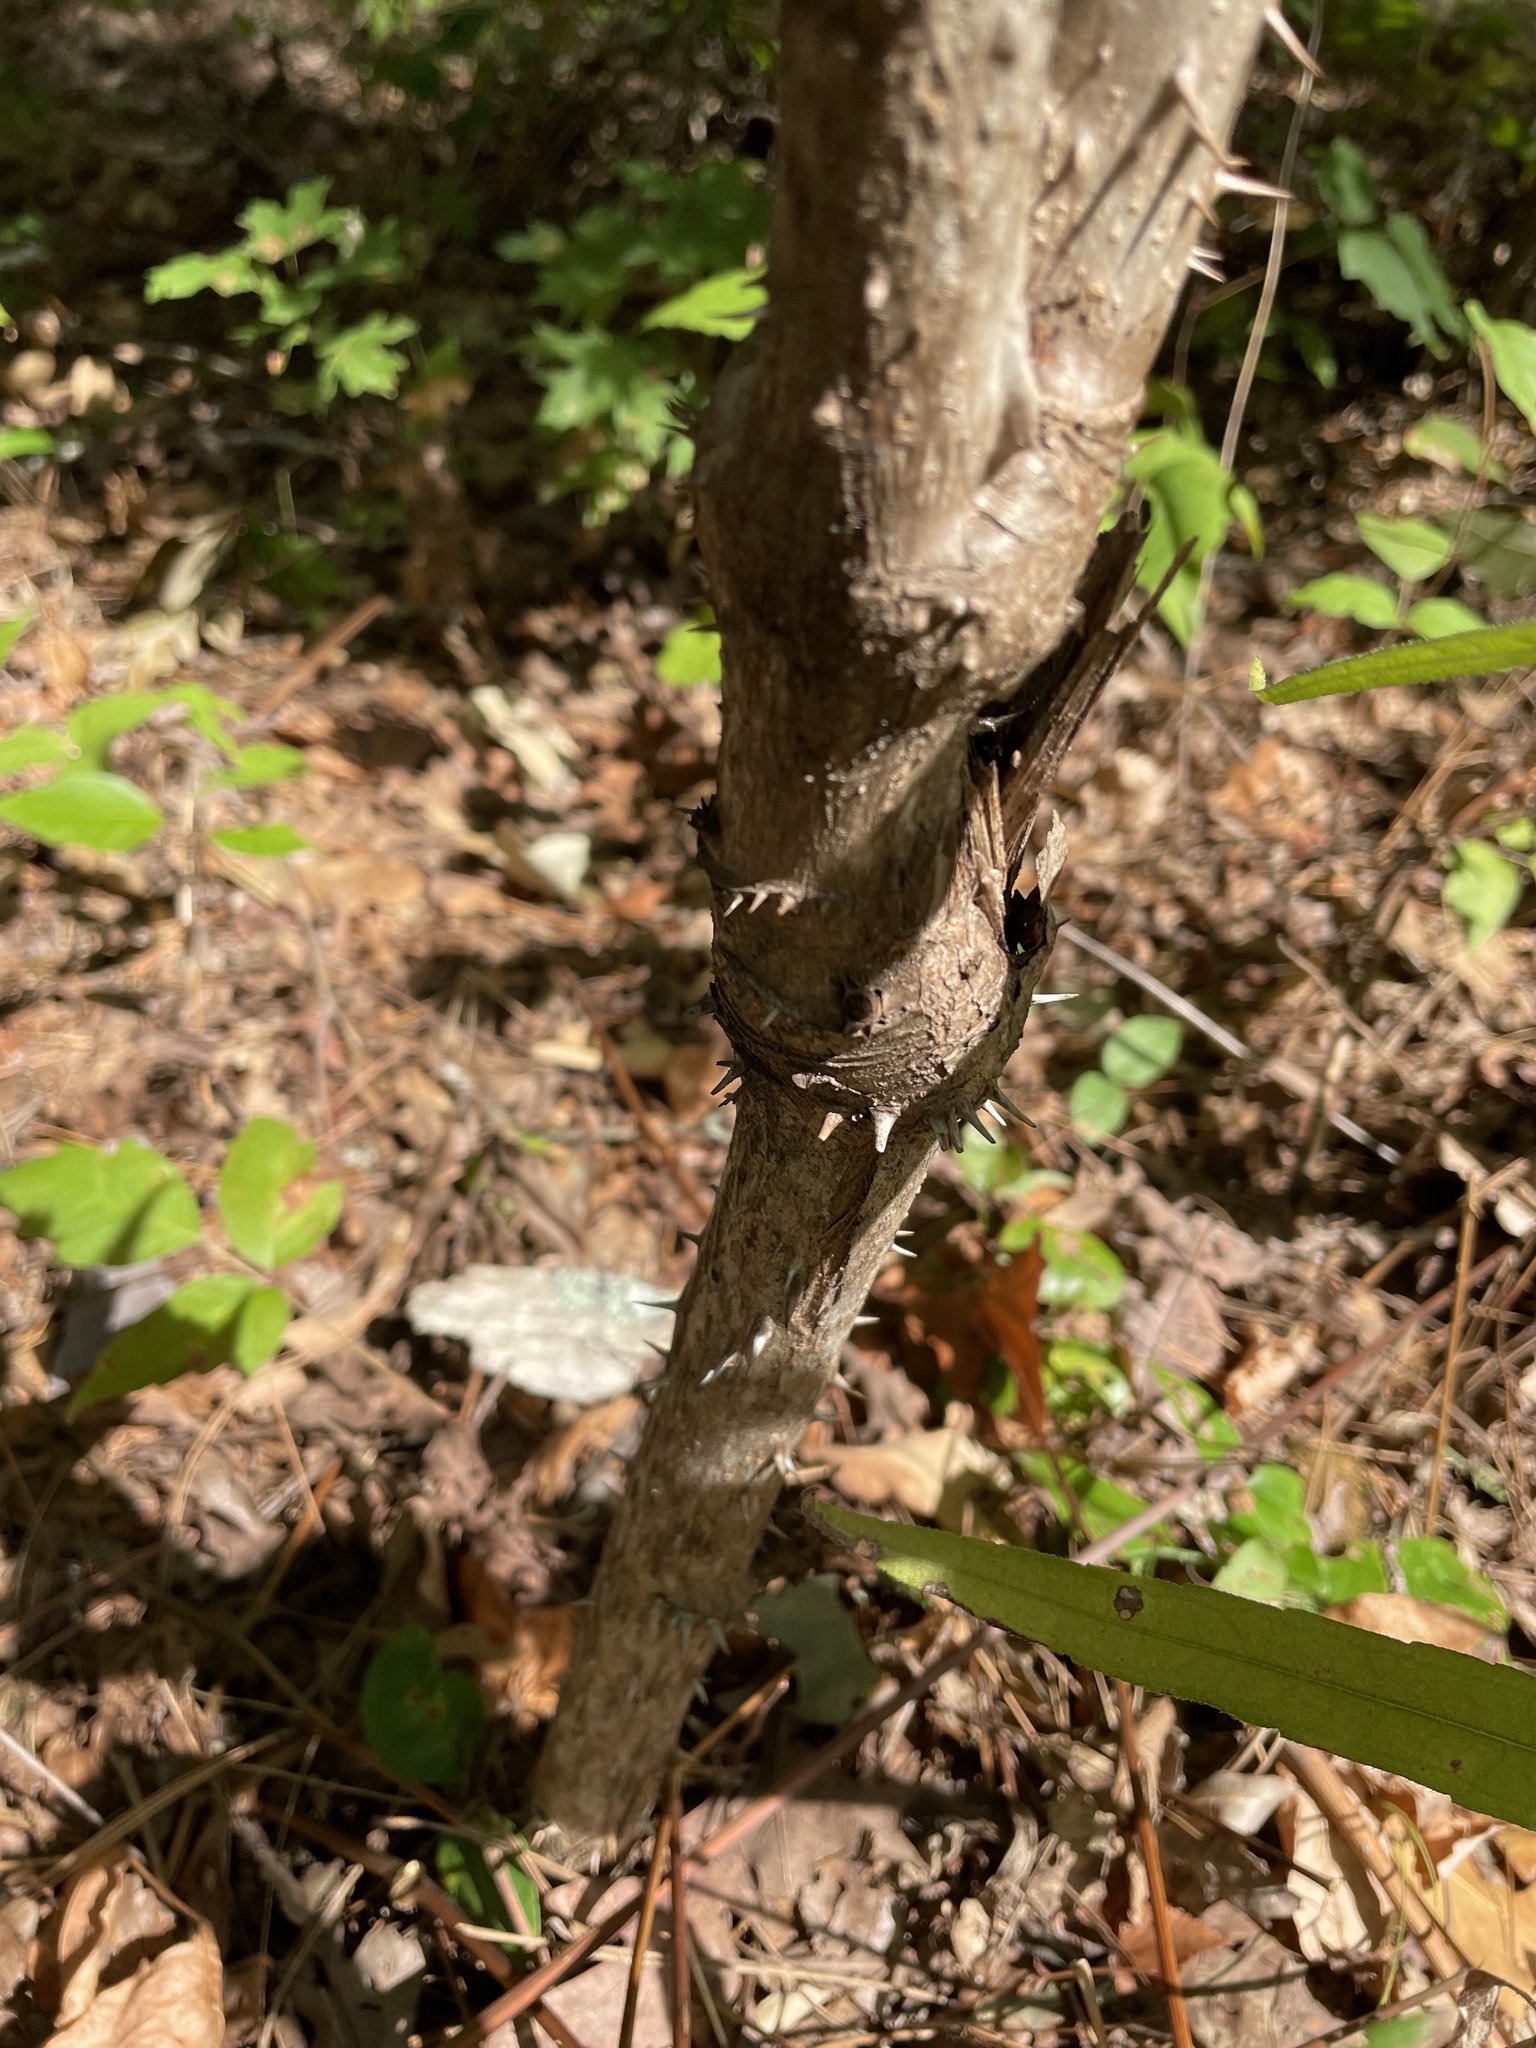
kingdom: Plantae
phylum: Tracheophyta
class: Magnoliopsida
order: Apiales
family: Araliaceae
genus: Aralia
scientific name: Aralia spinosa
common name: Hercules'-club
